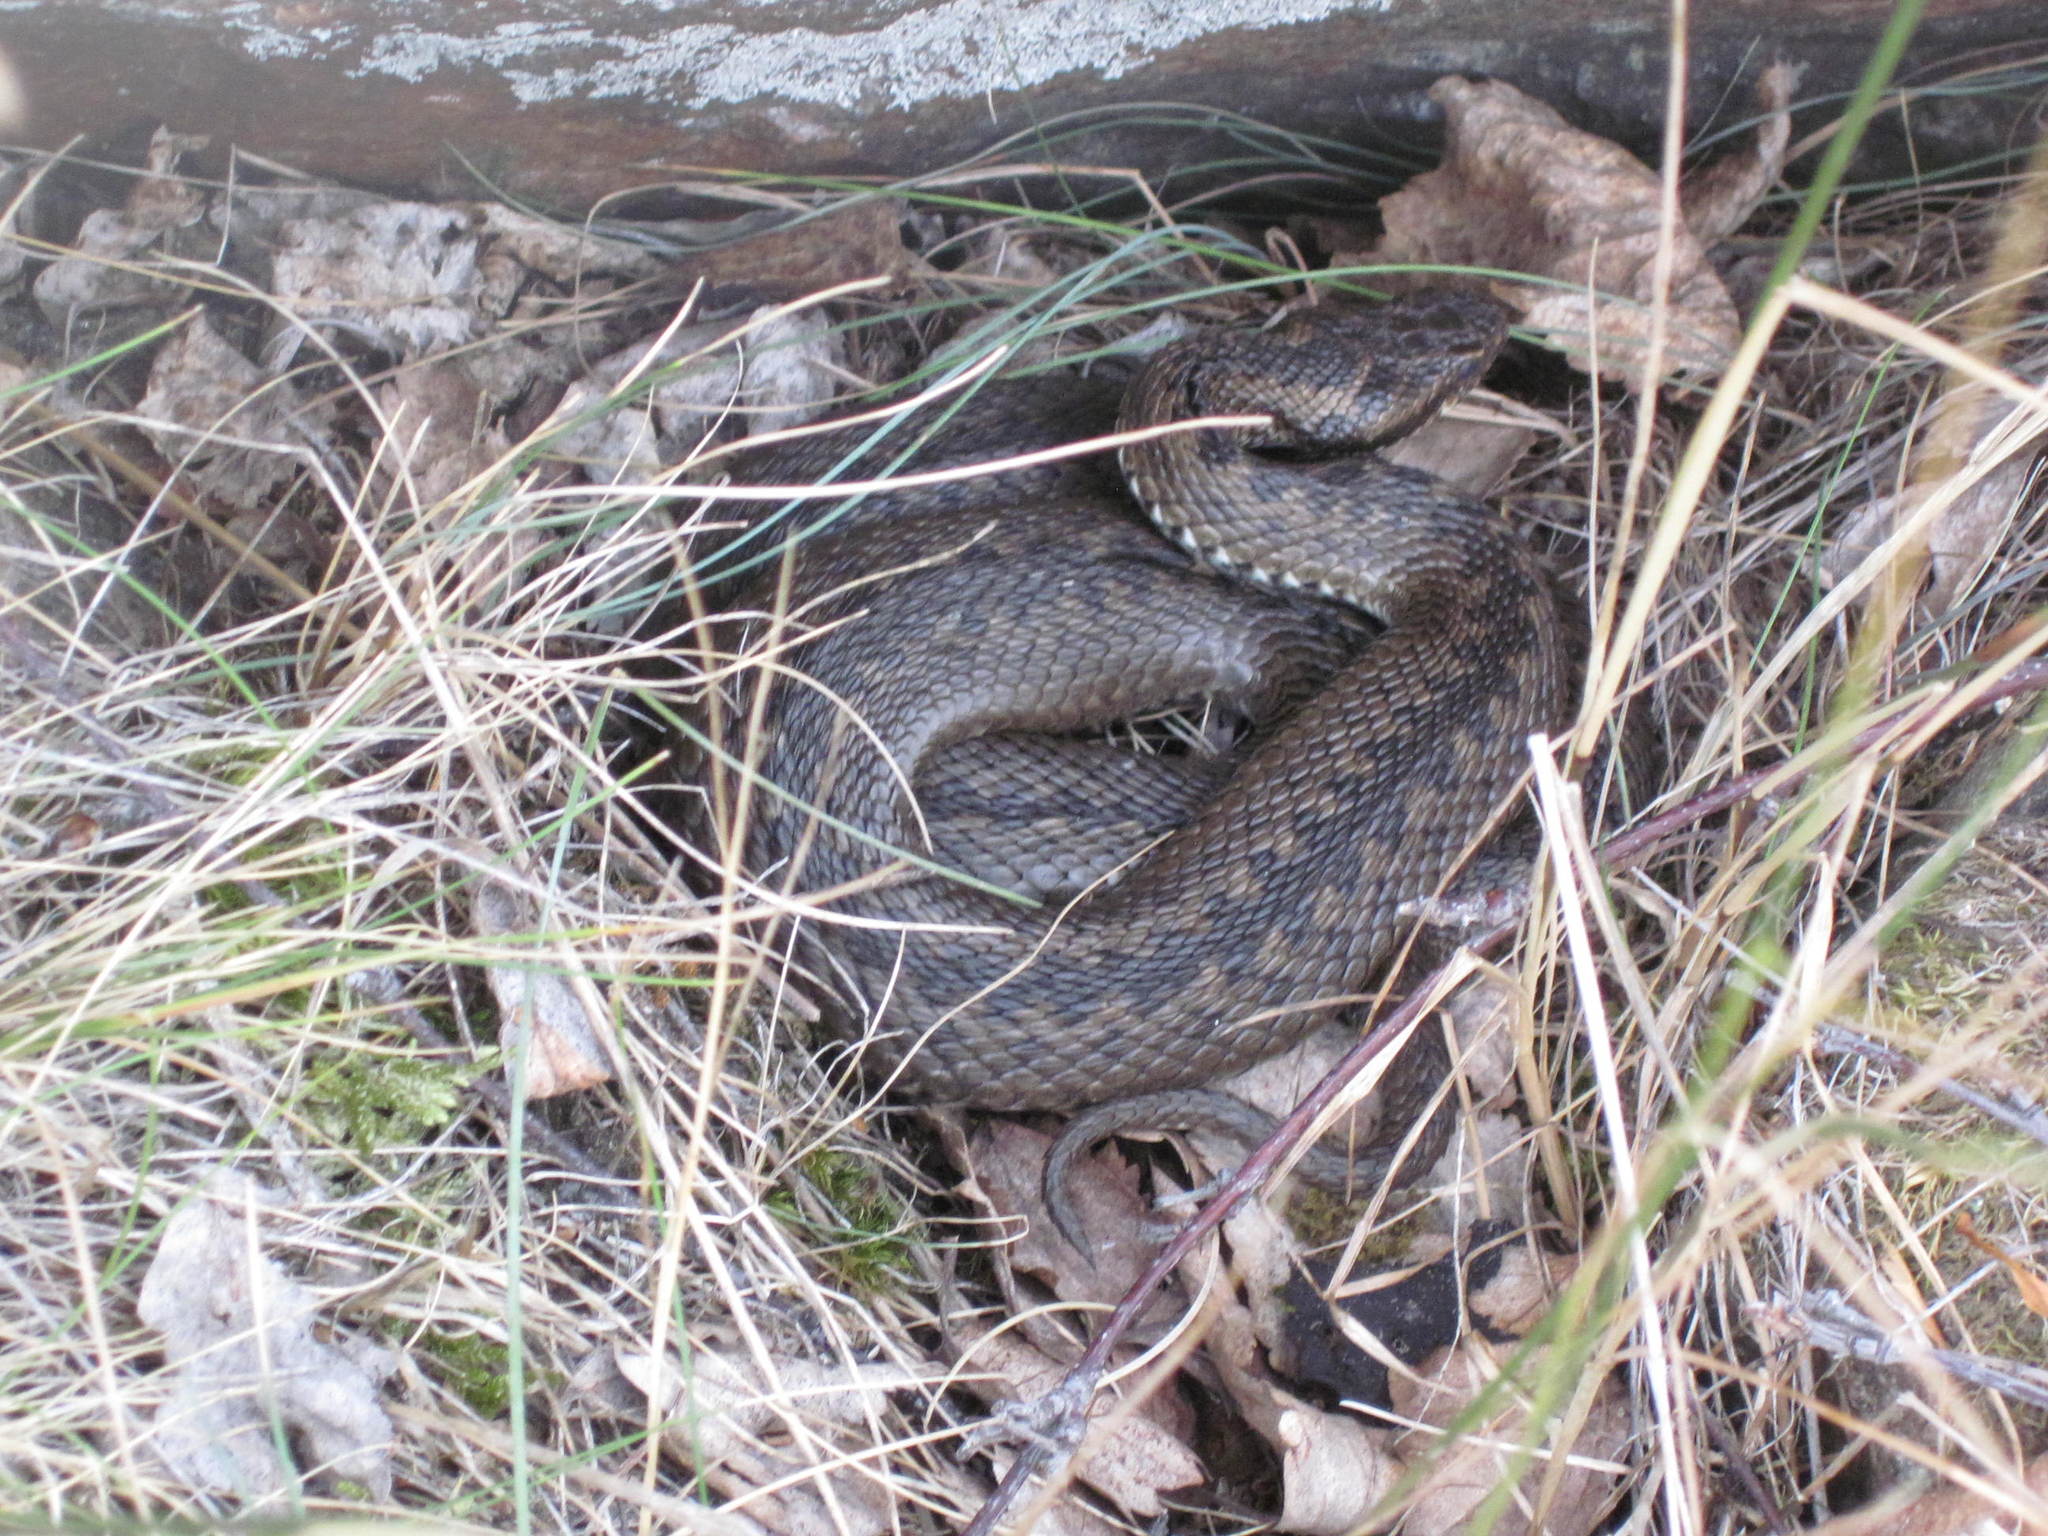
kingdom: Animalia
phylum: Chordata
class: Squamata
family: Viperidae
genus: Vipera
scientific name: Vipera berus
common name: Adder
